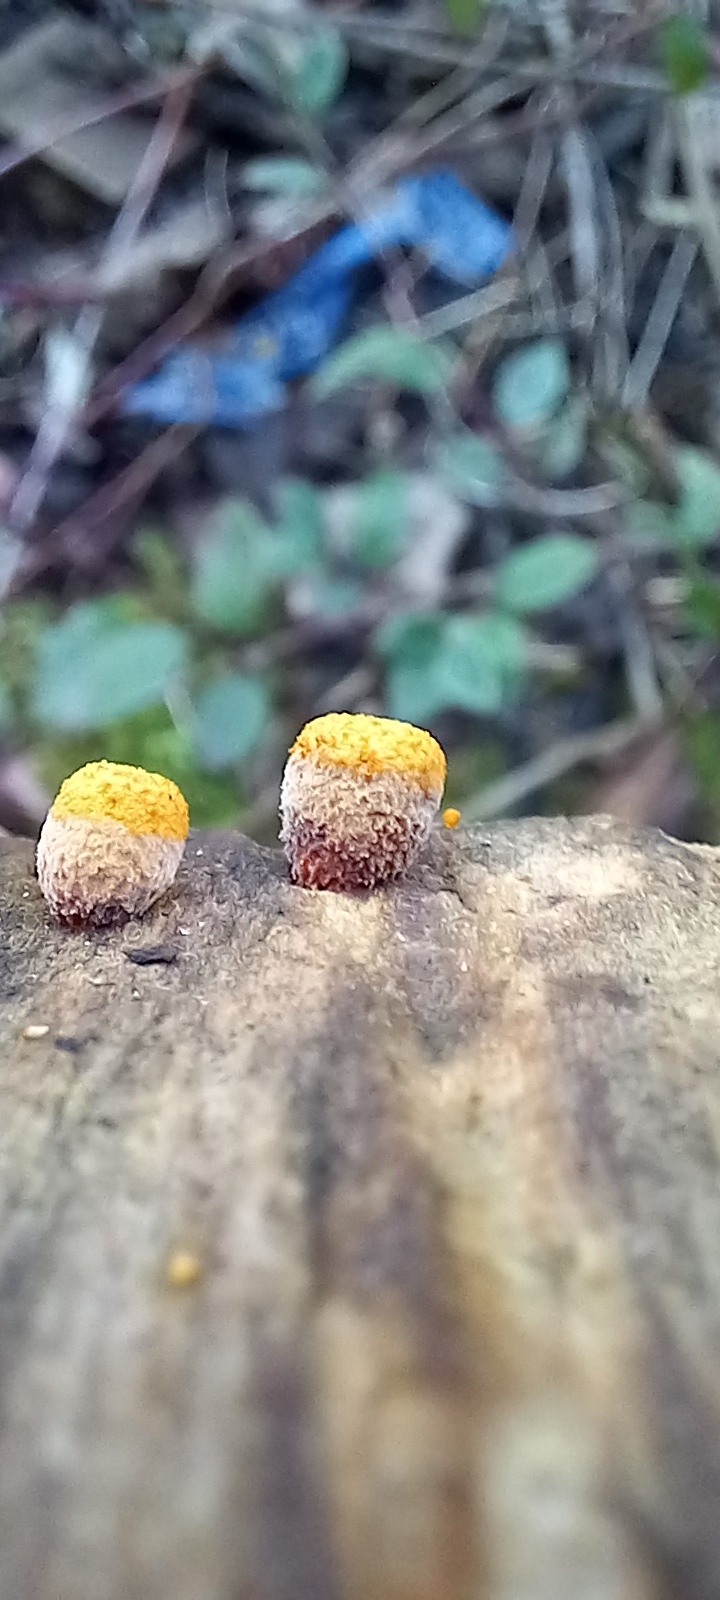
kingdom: Fungi
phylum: Basidiomycota
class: Agaricomycetes
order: Agaricales
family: Nidulariaceae
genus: Crucibulum
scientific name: Crucibulum laeve
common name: Common bird's nest
